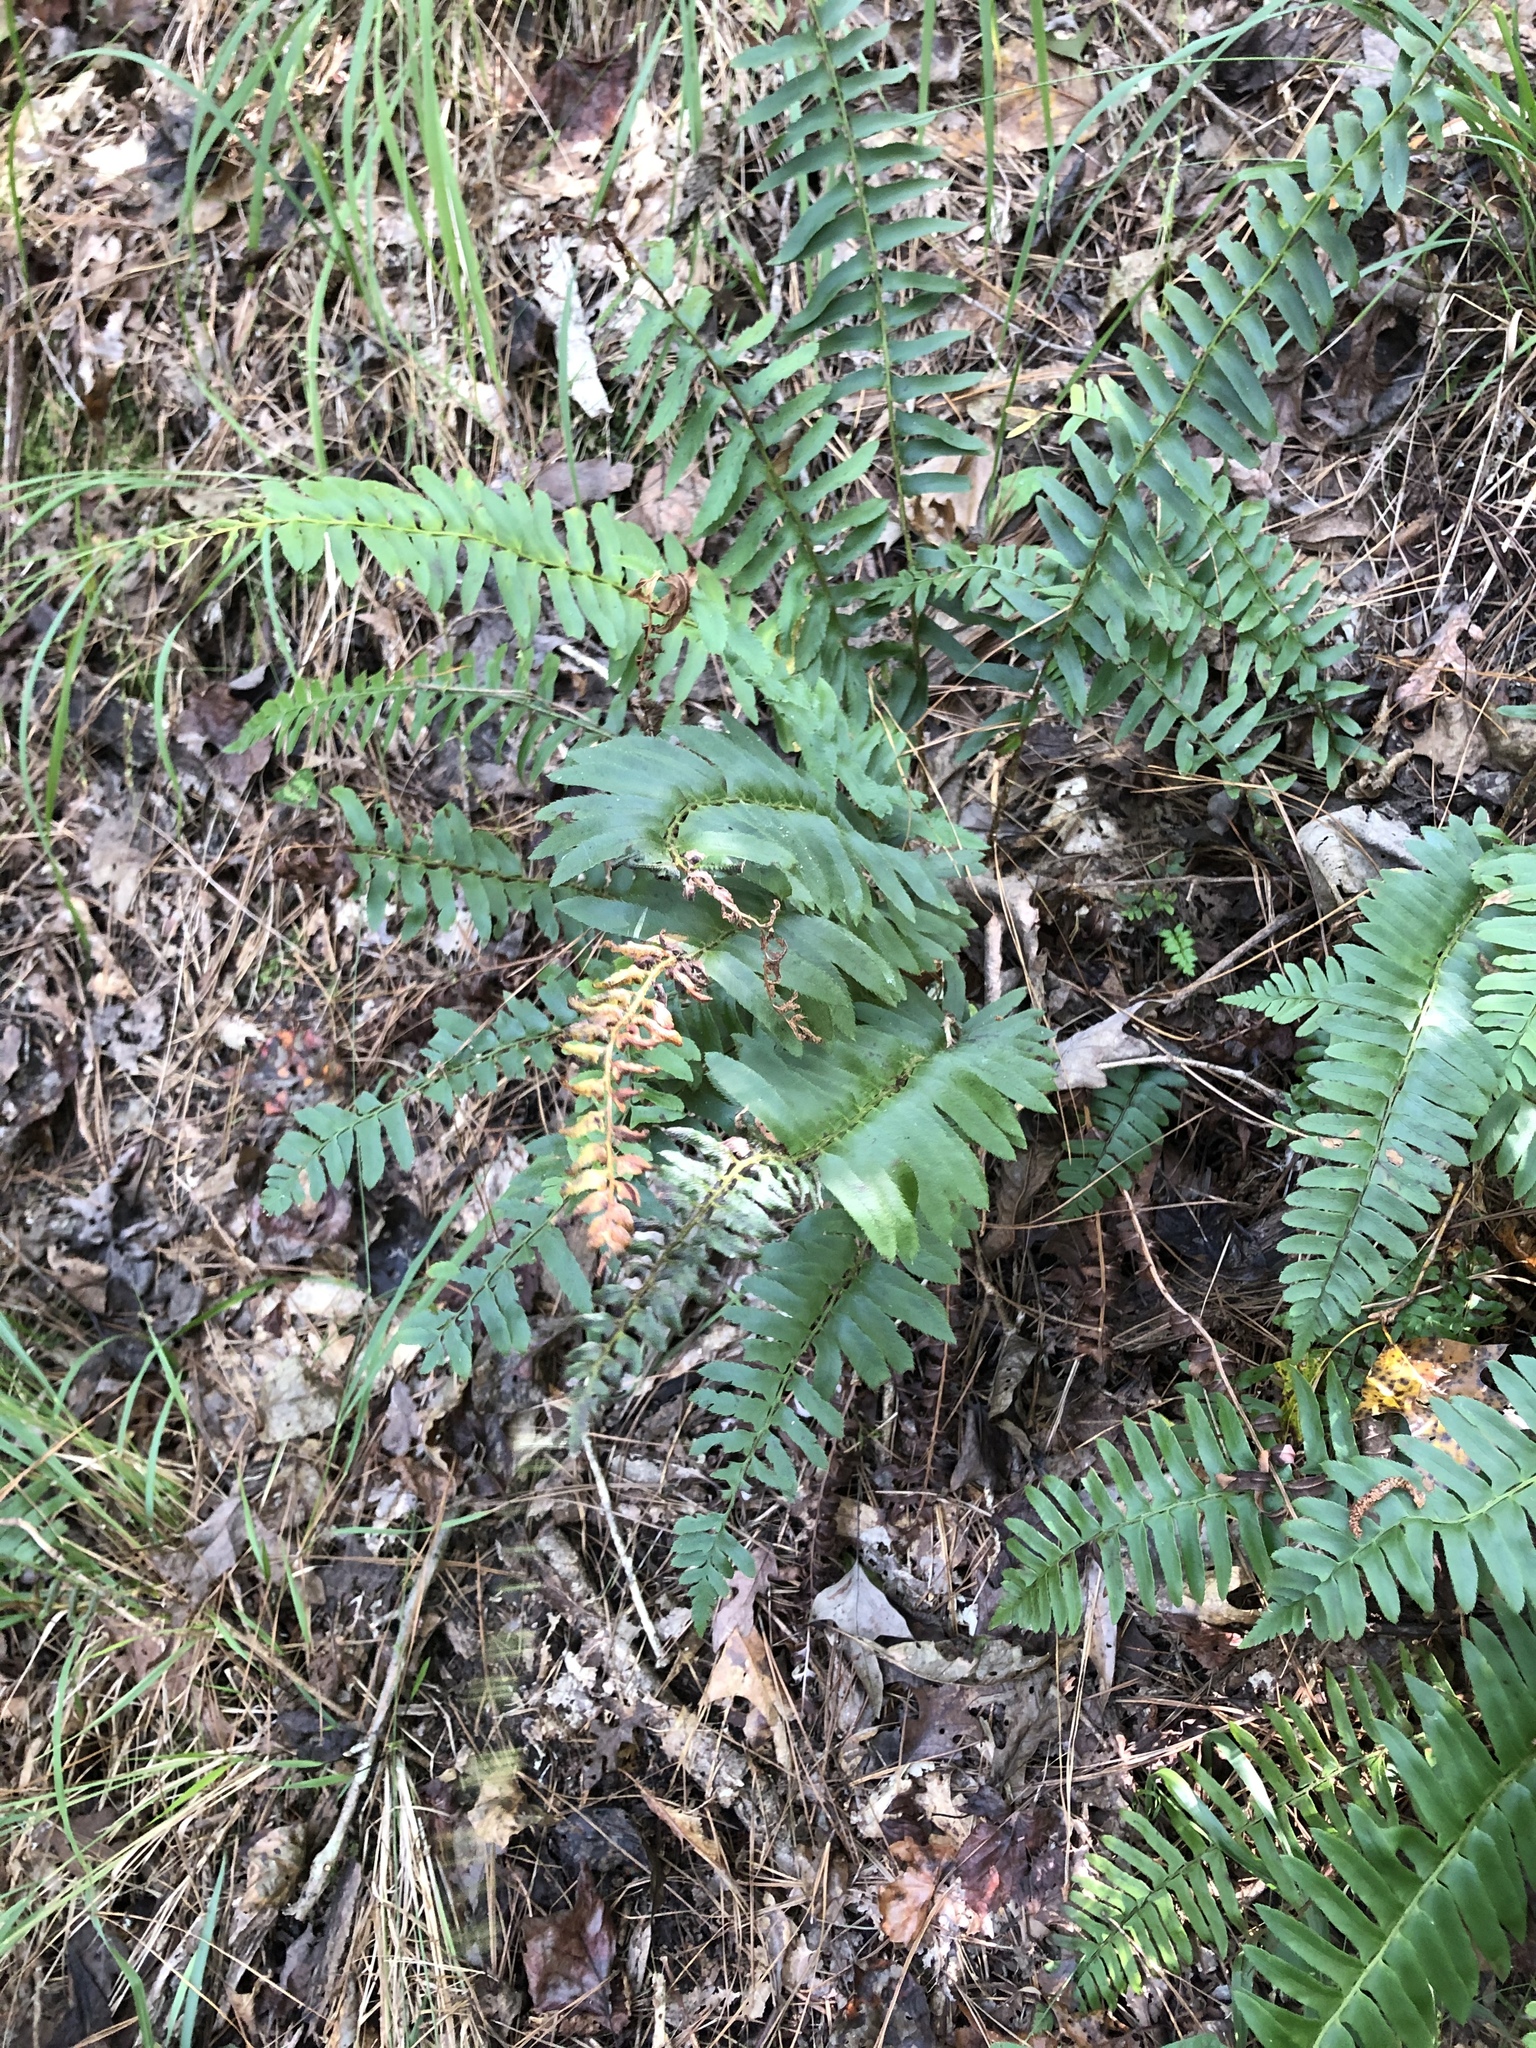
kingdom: Plantae
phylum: Tracheophyta
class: Polypodiopsida
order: Polypodiales
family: Dryopteridaceae
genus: Polystichum
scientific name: Polystichum acrostichoides
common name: Christmas fern
